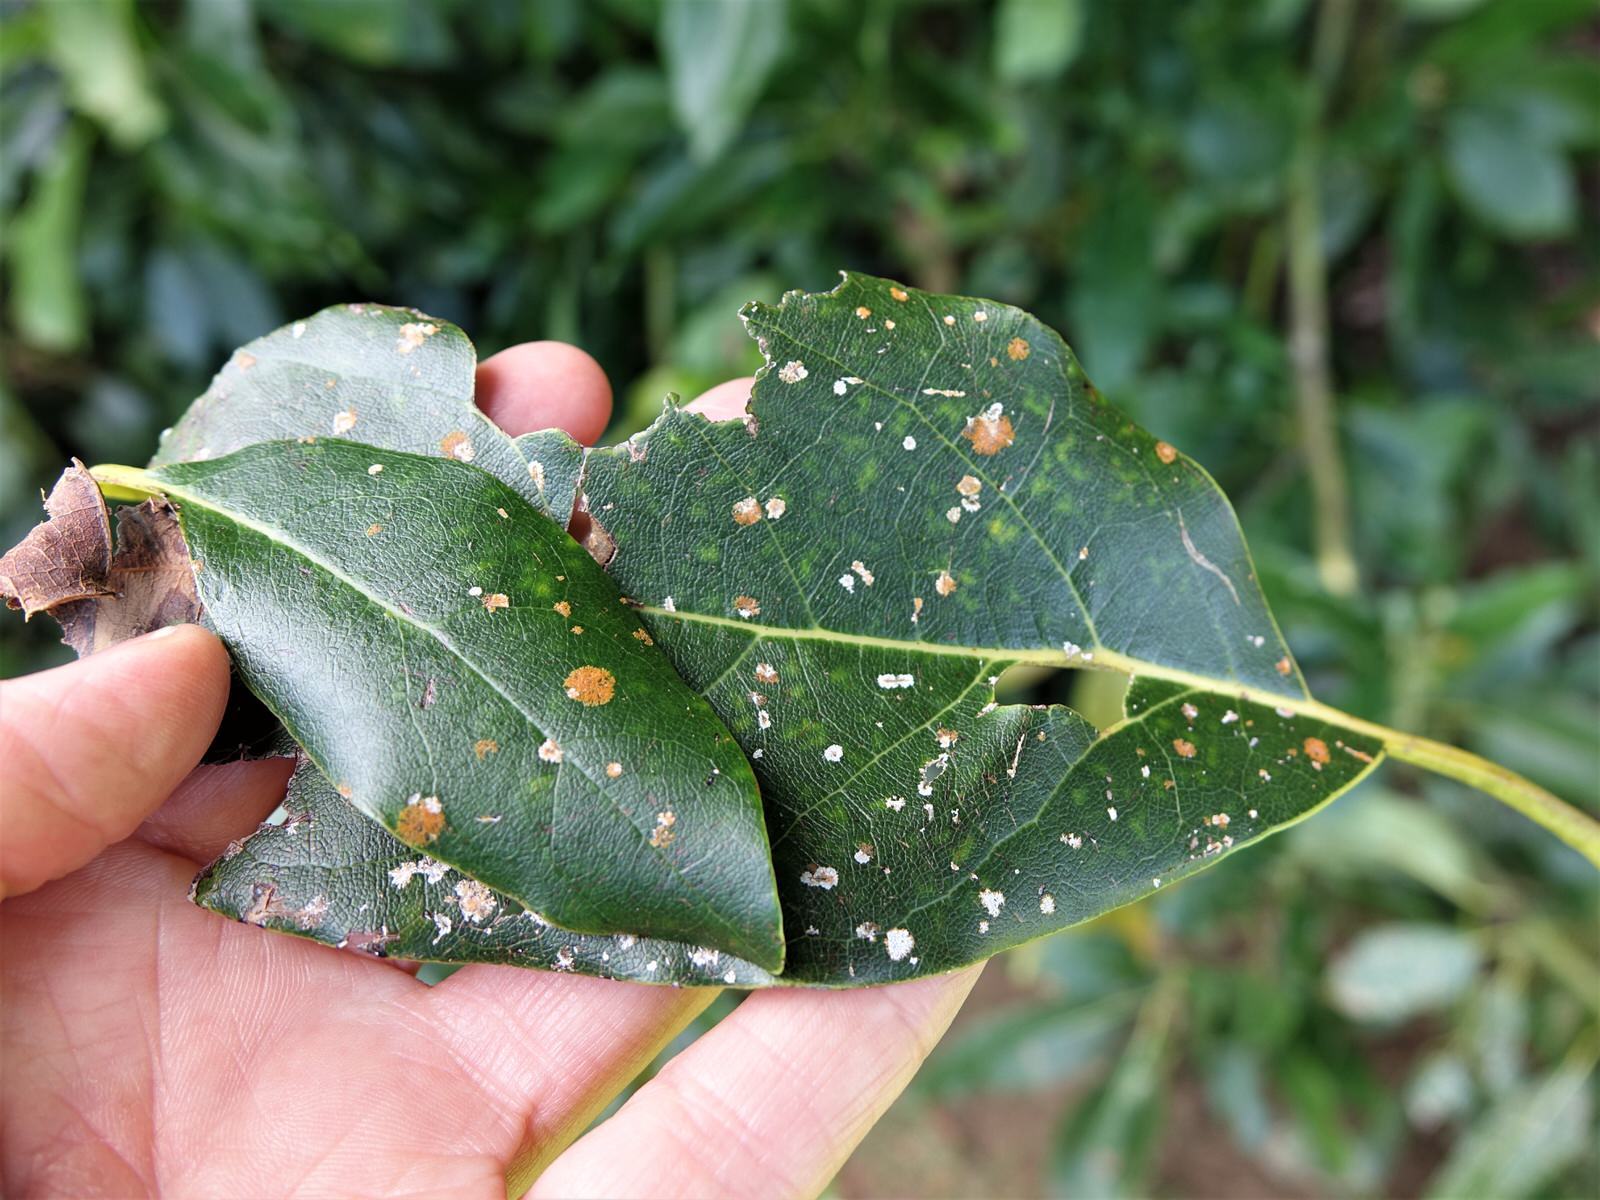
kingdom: Fungi
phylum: Ascomycota
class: Dothideomycetes
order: Strigulales
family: Strigulaceae
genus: Phyllocharis
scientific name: Phyllocharis orbicularis
